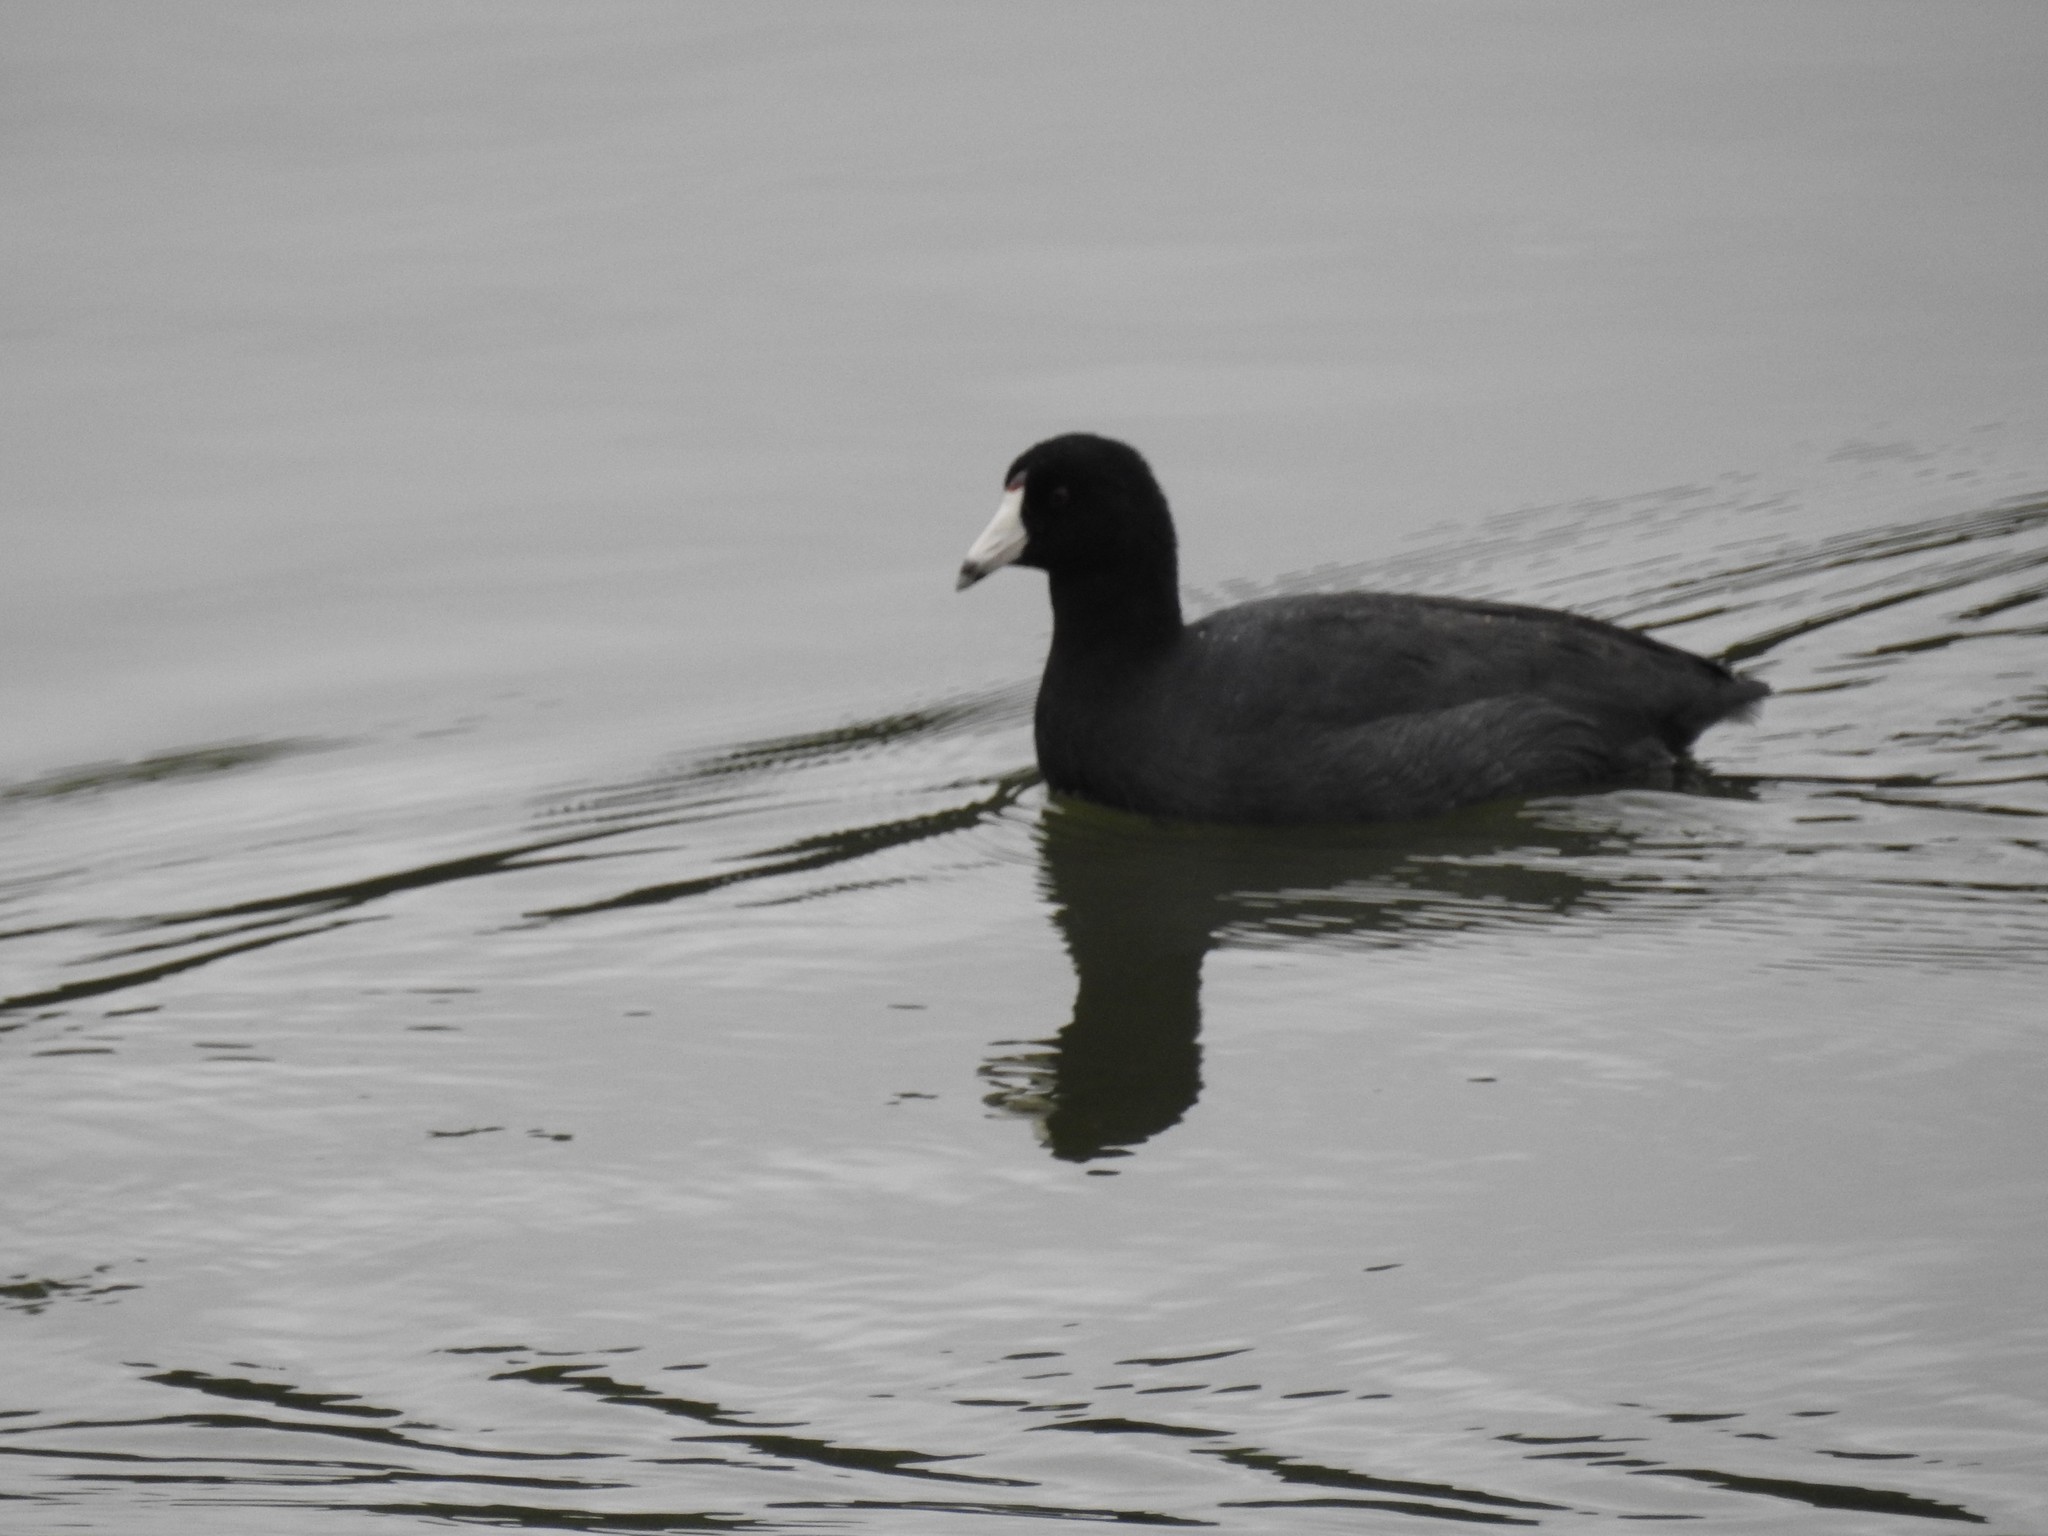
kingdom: Animalia
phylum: Chordata
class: Aves
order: Gruiformes
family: Rallidae
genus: Fulica
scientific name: Fulica americana
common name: American coot
